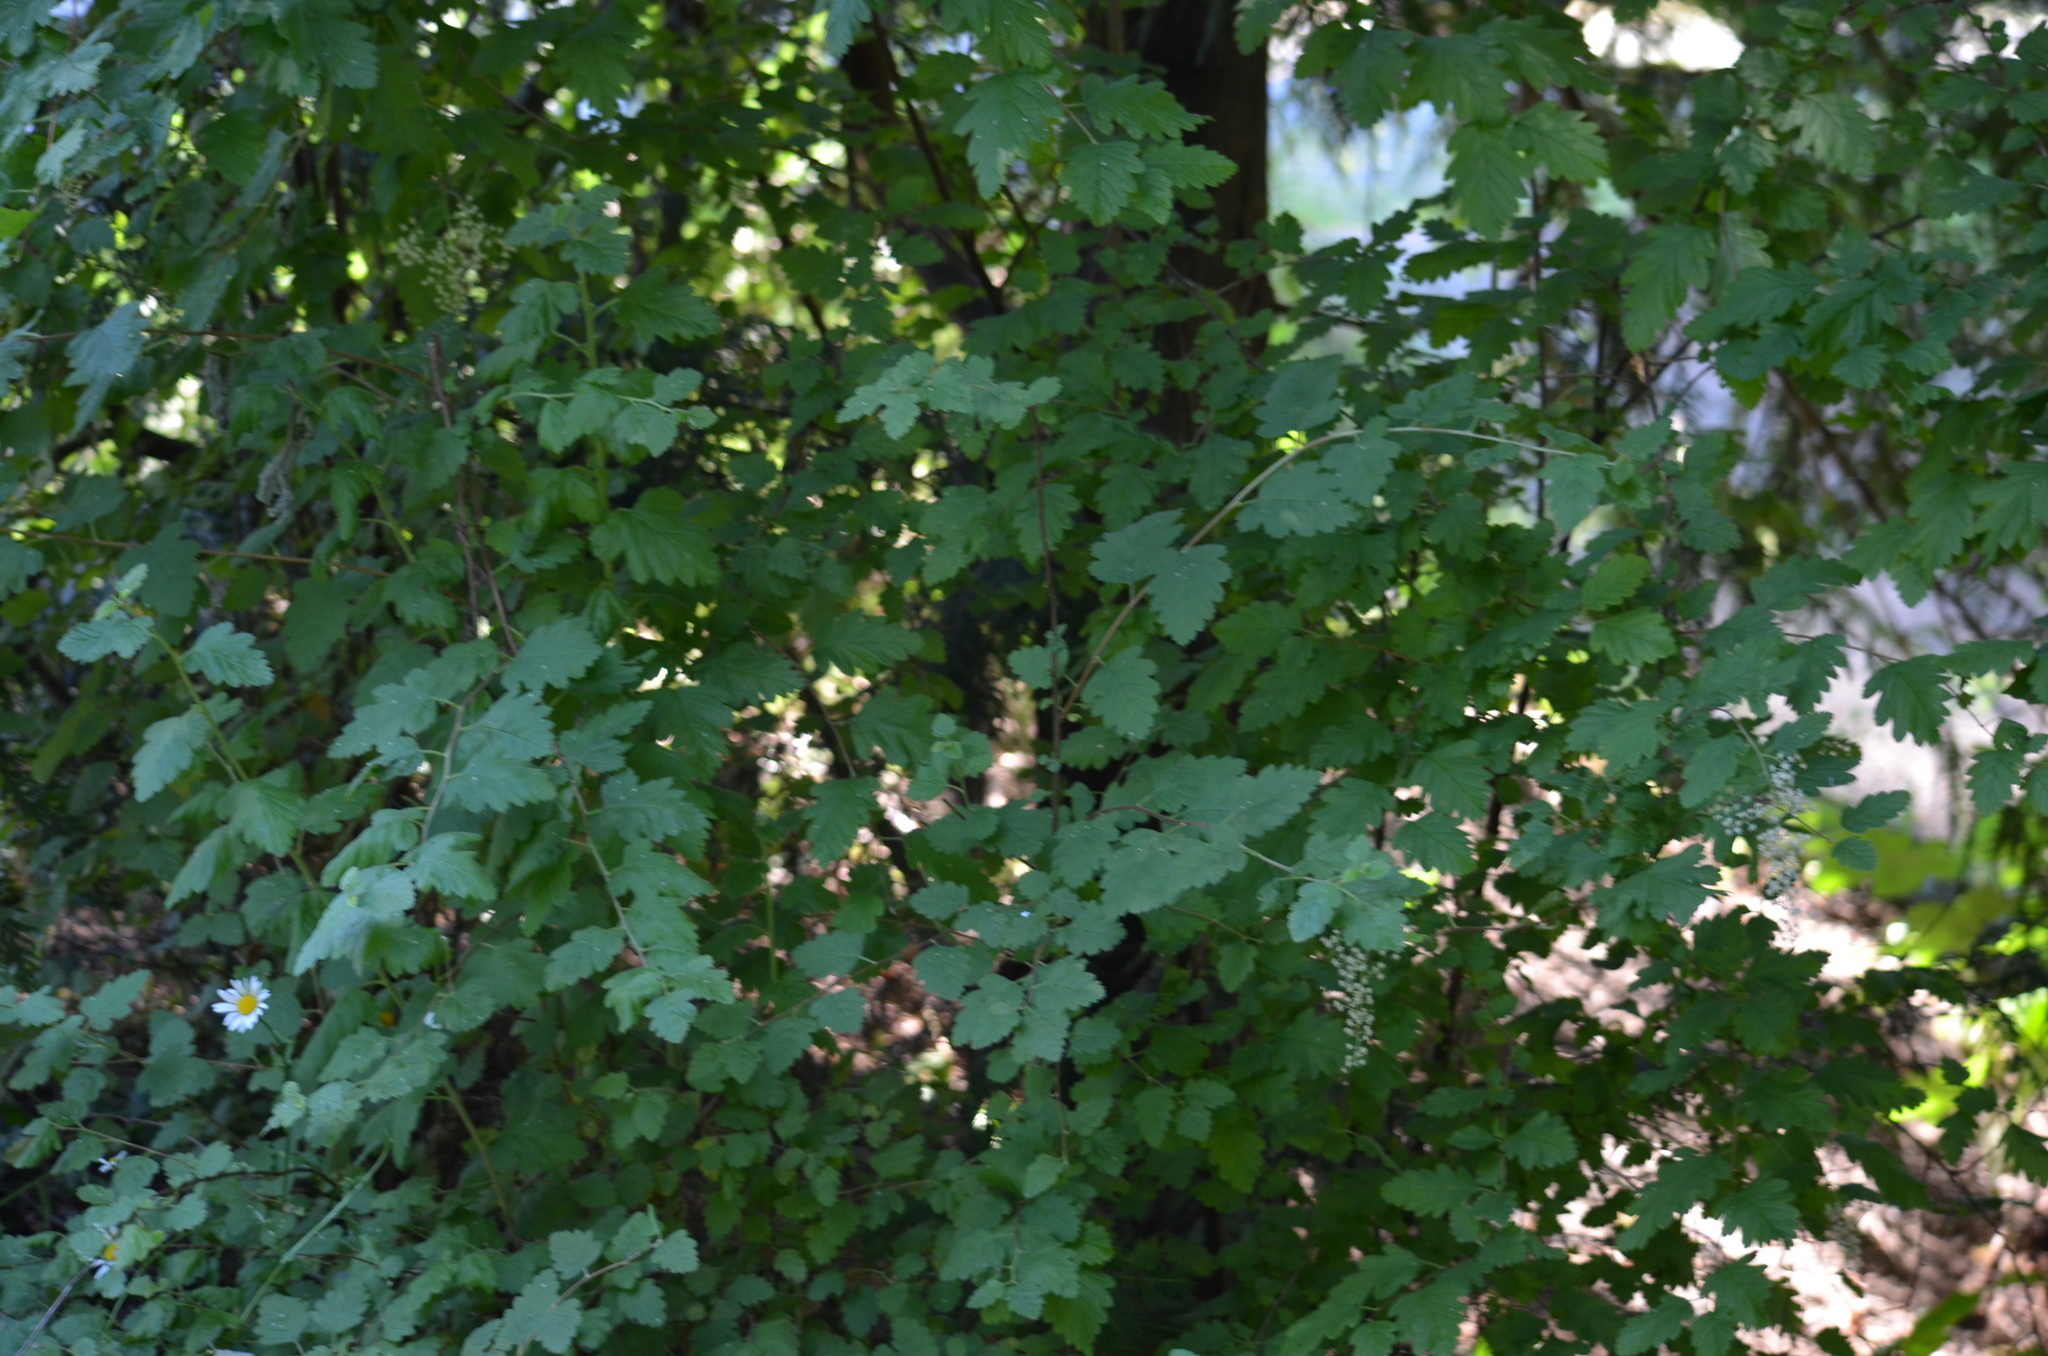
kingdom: Plantae
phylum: Tracheophyta
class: Magnoliopsida
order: Rosales
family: Rosaceae
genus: Holodiscus
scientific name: Holodiscus discolor
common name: Oceanspray
